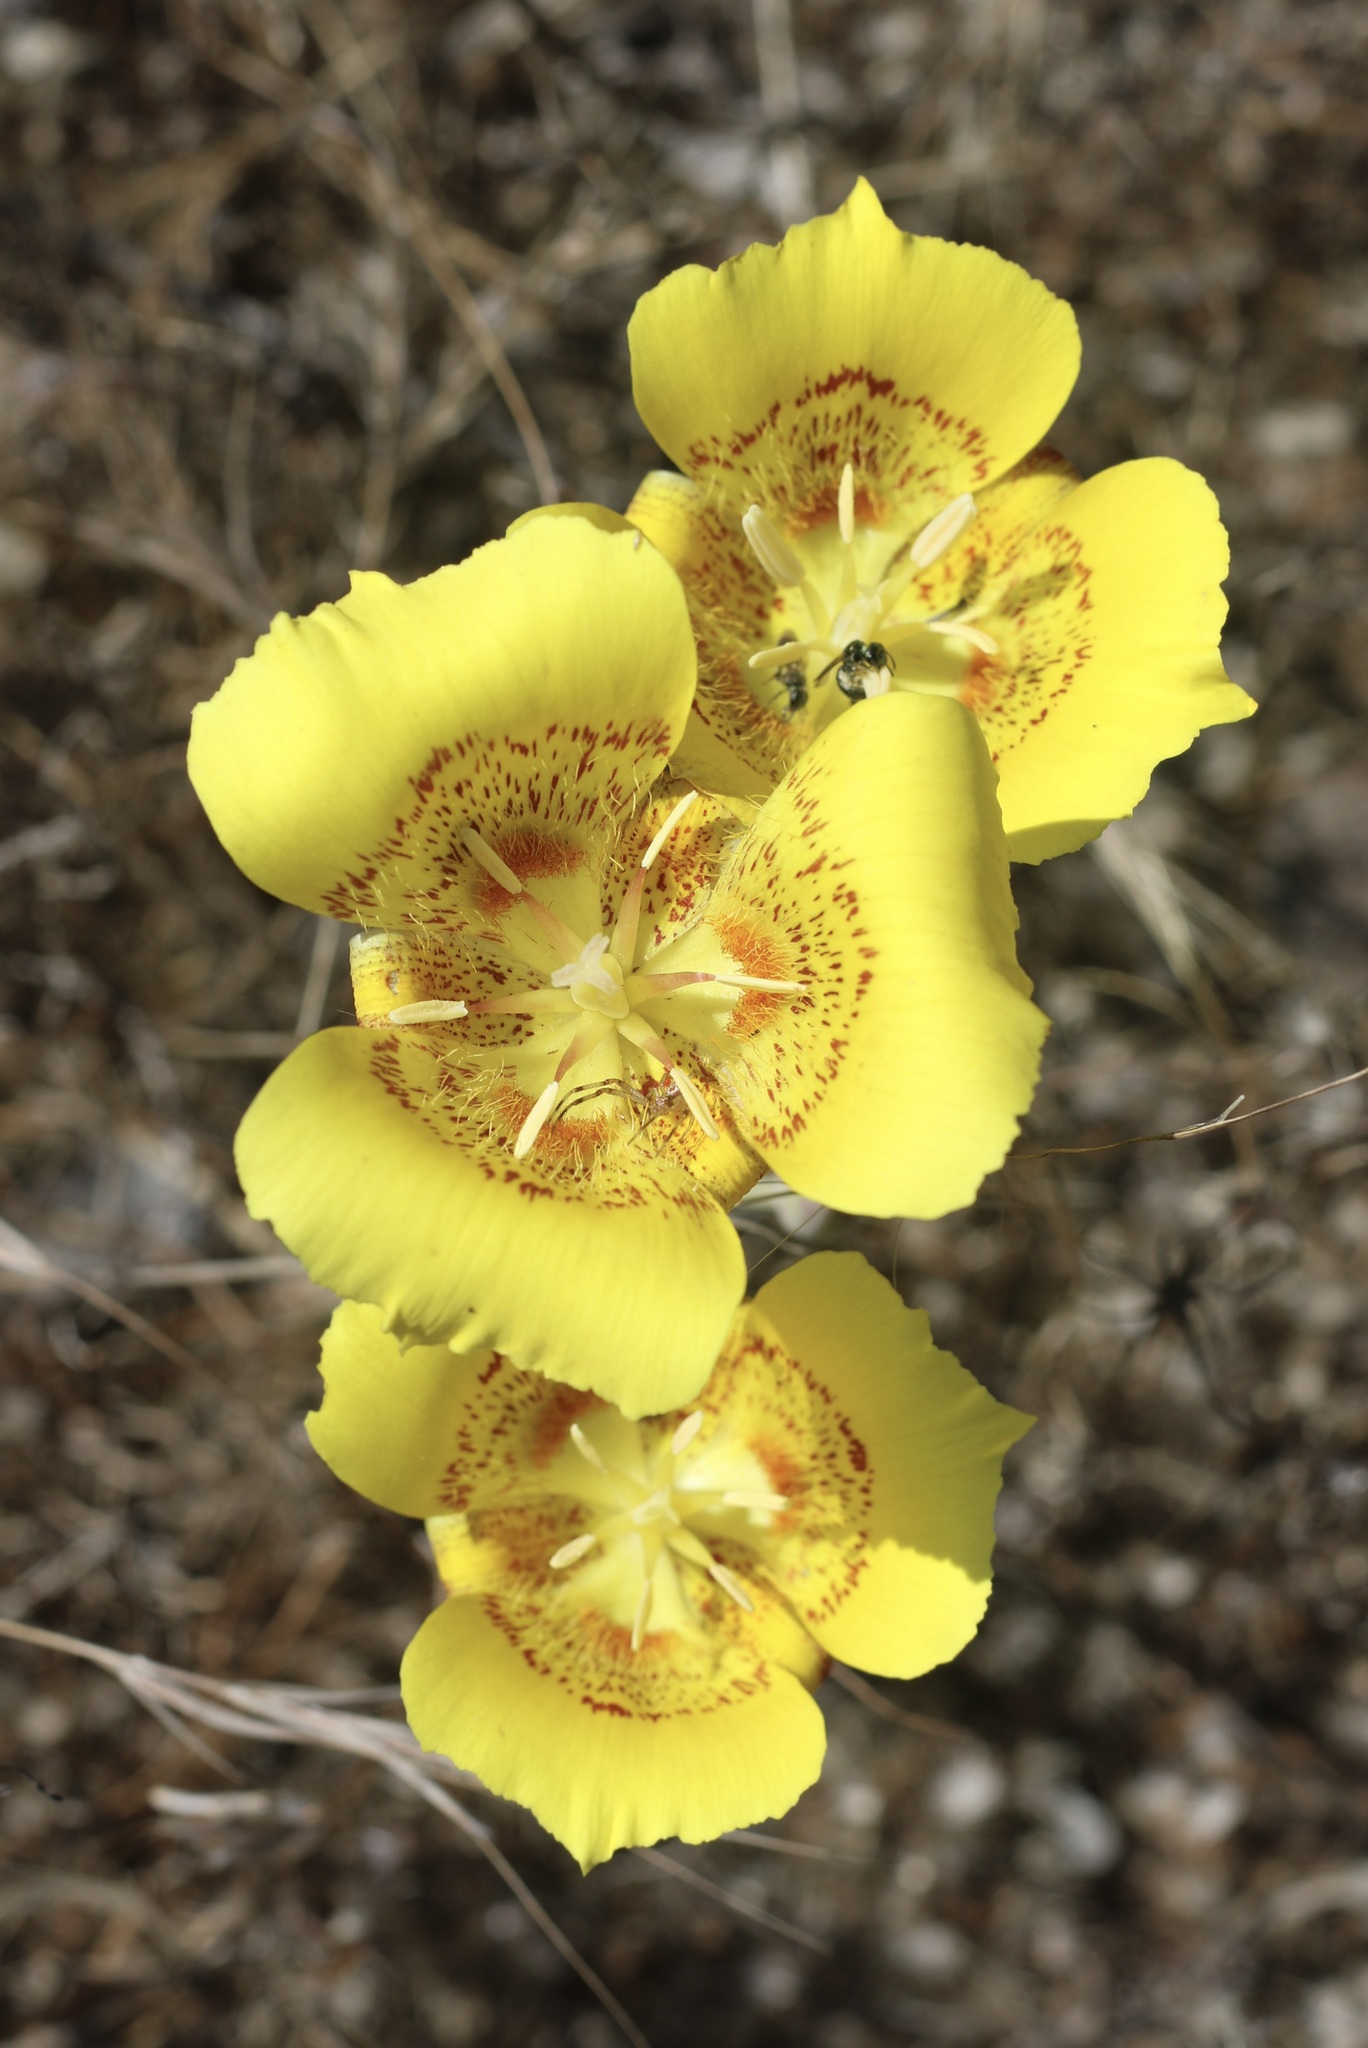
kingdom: Plantae
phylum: Tracheophyta
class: Liliopsida
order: Liliales
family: Liliaceae
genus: Calochortus
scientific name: Calochortus luteus
